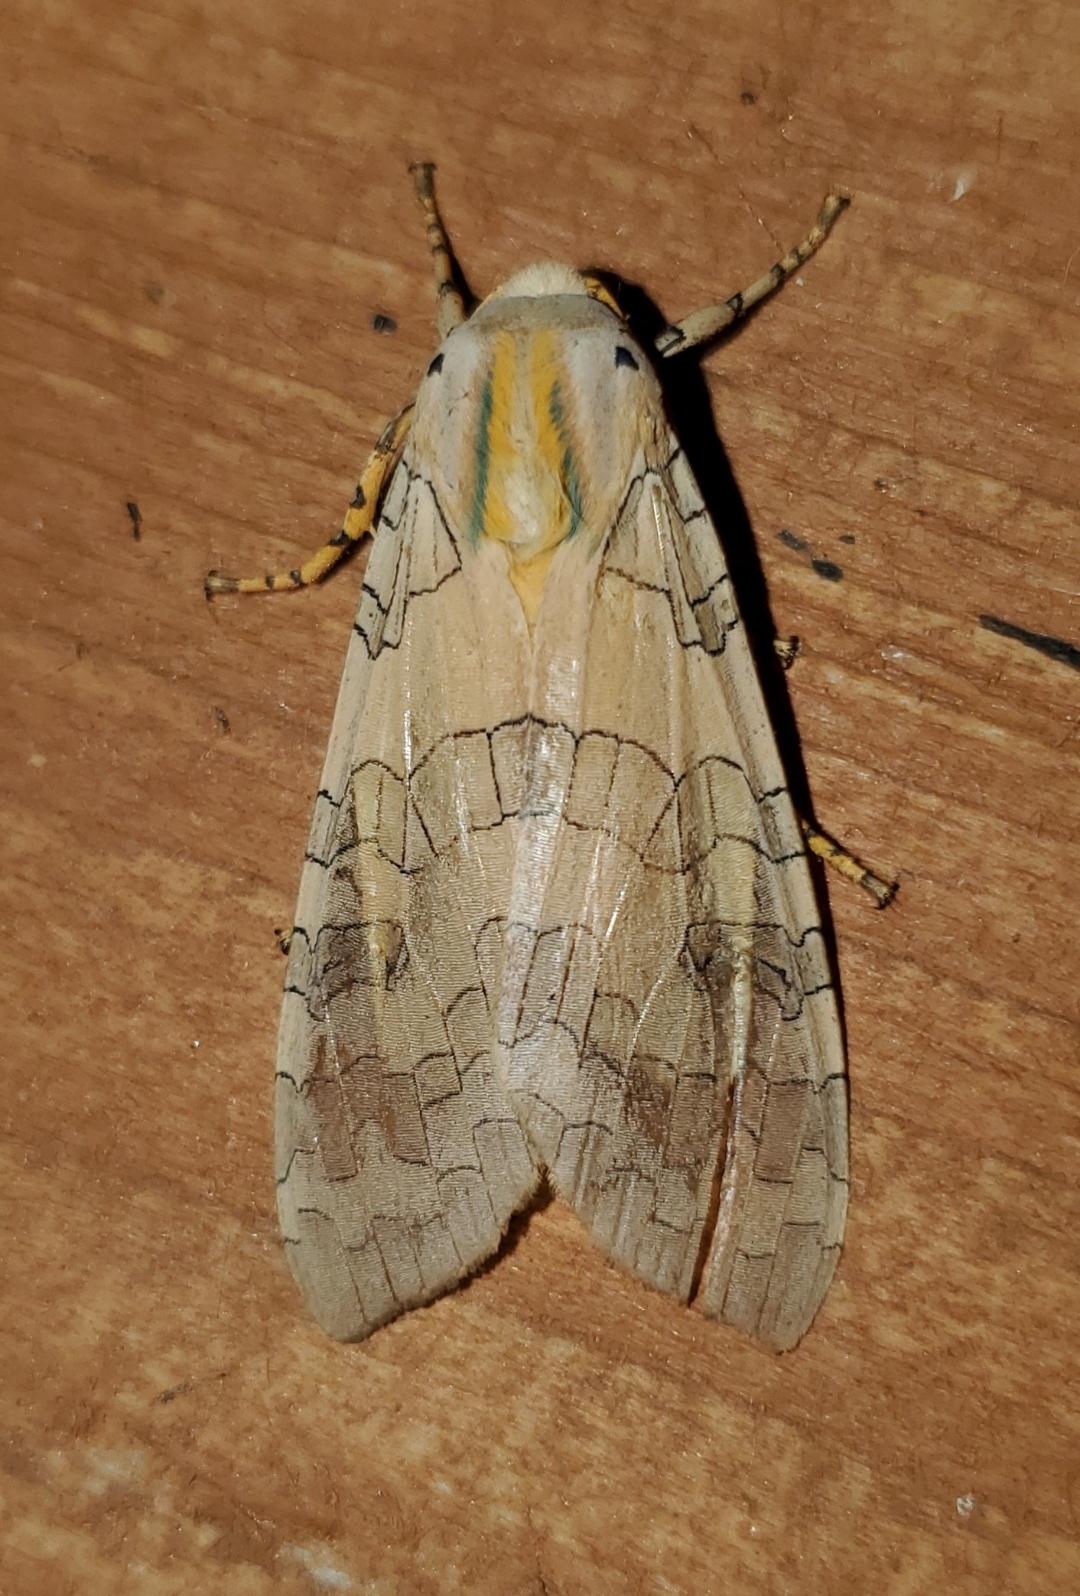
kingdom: Animalia
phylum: Arthropoda
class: Insecta
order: Lepidoptera
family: Erebidae
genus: Halysidota
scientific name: Halysidota tessellaris
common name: Banded tussock moth
